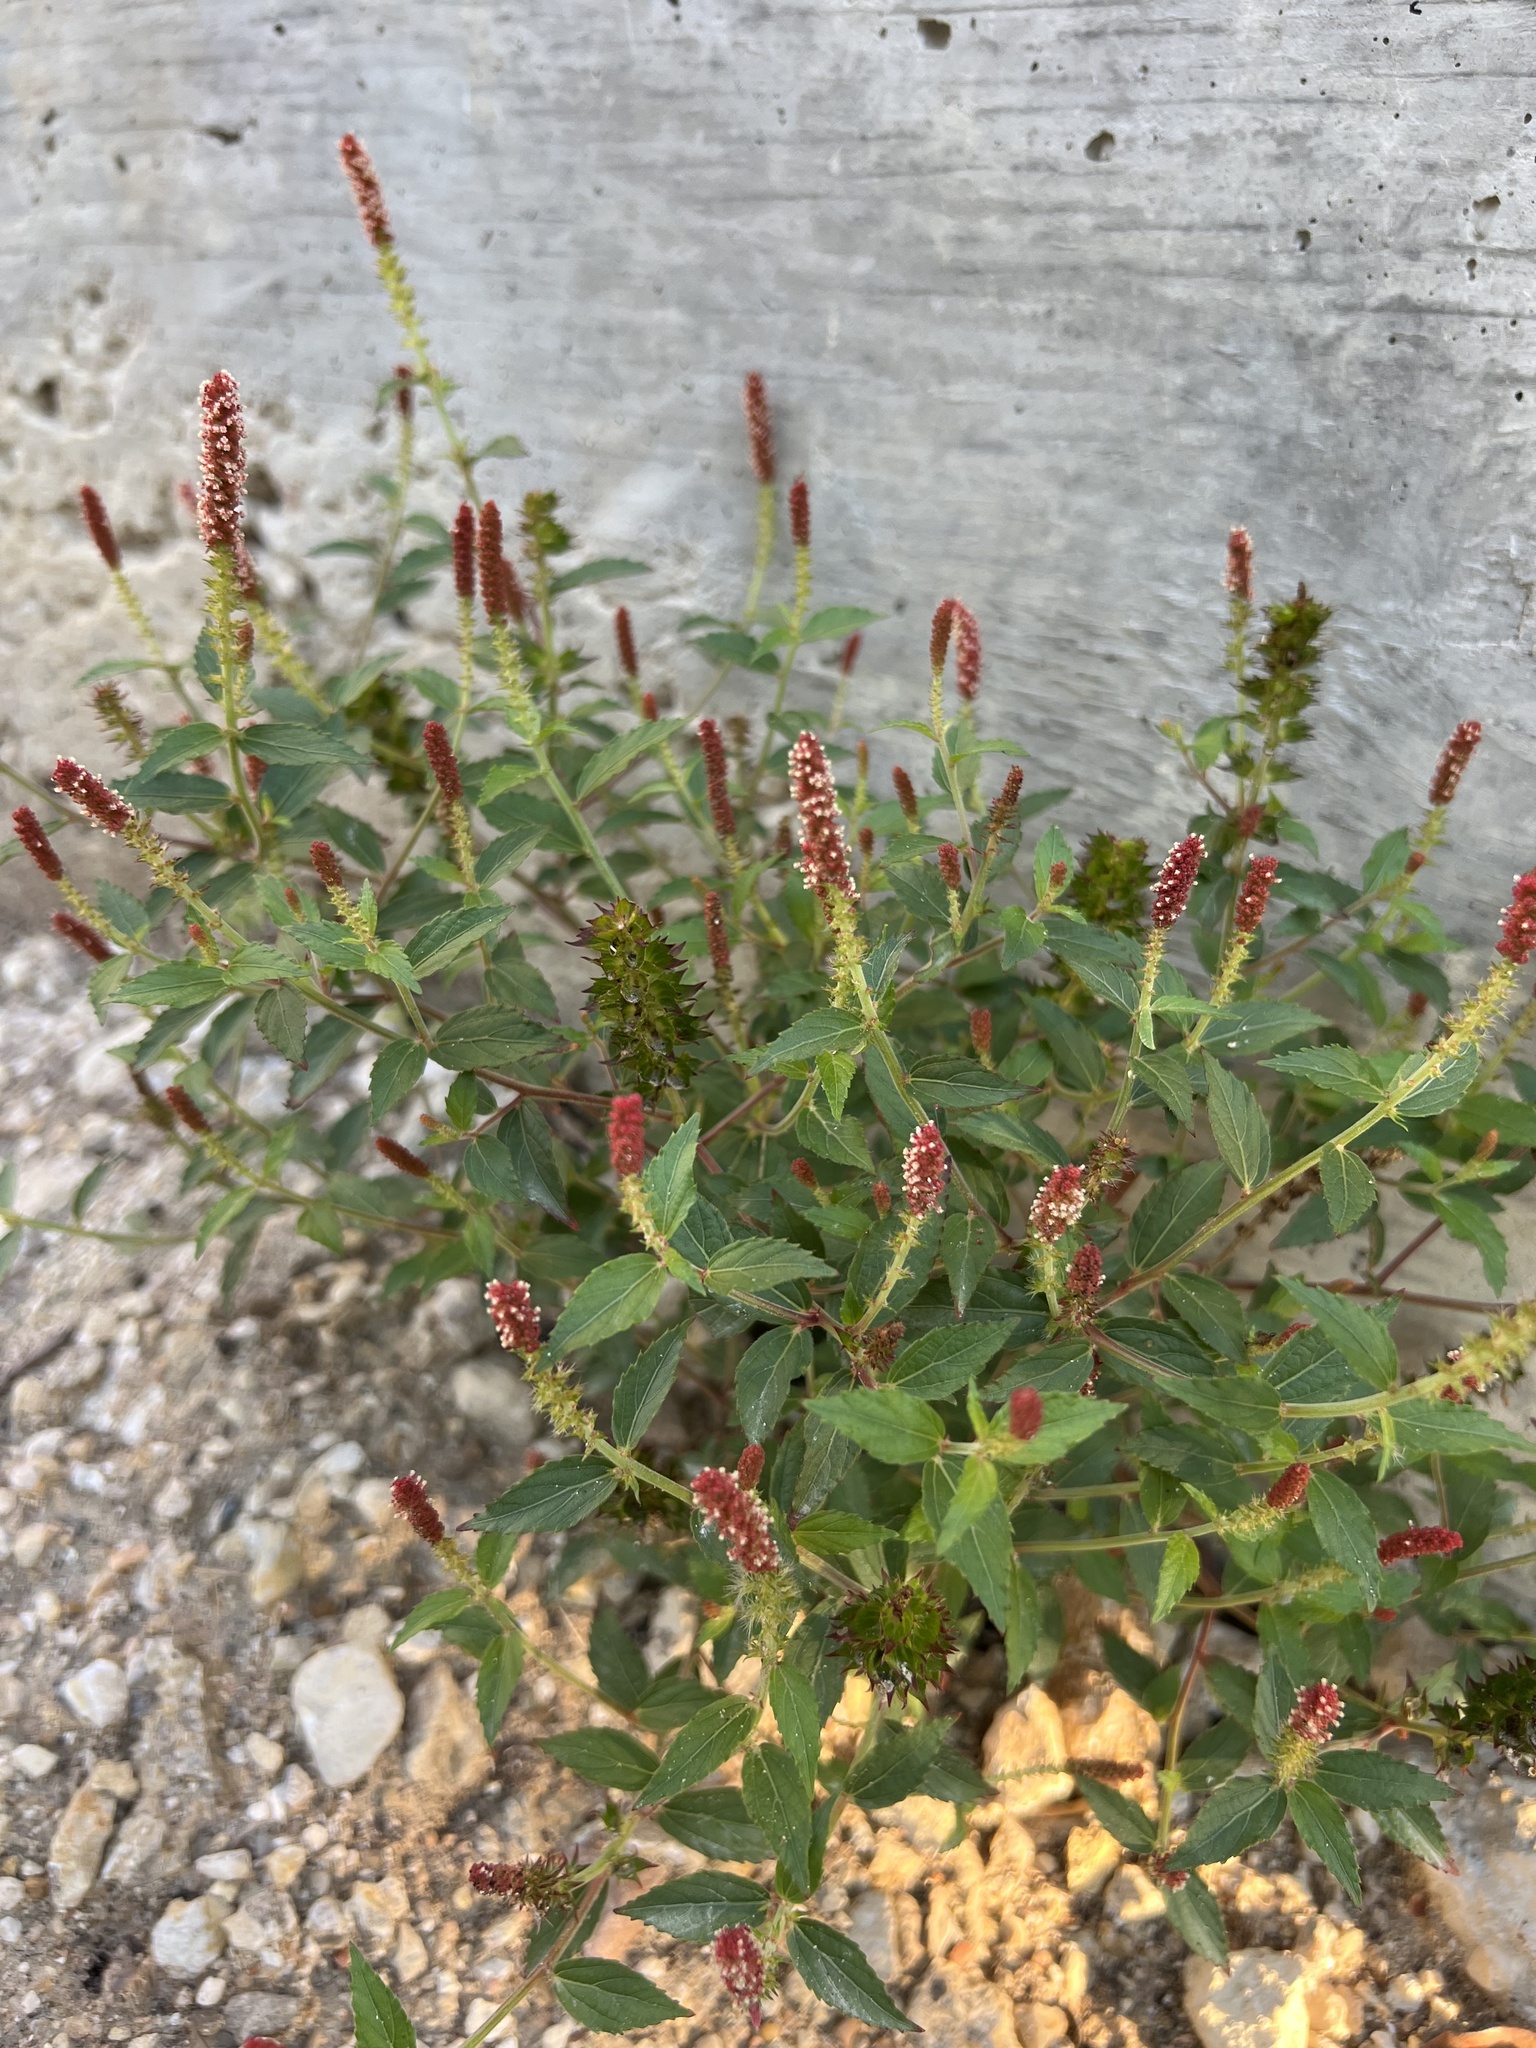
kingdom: Plantae
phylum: Tracheophyta
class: Magnoliopsida
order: Malpighiales
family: Euphorbiaceae
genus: Acalypha
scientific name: Acalypha phleoides
